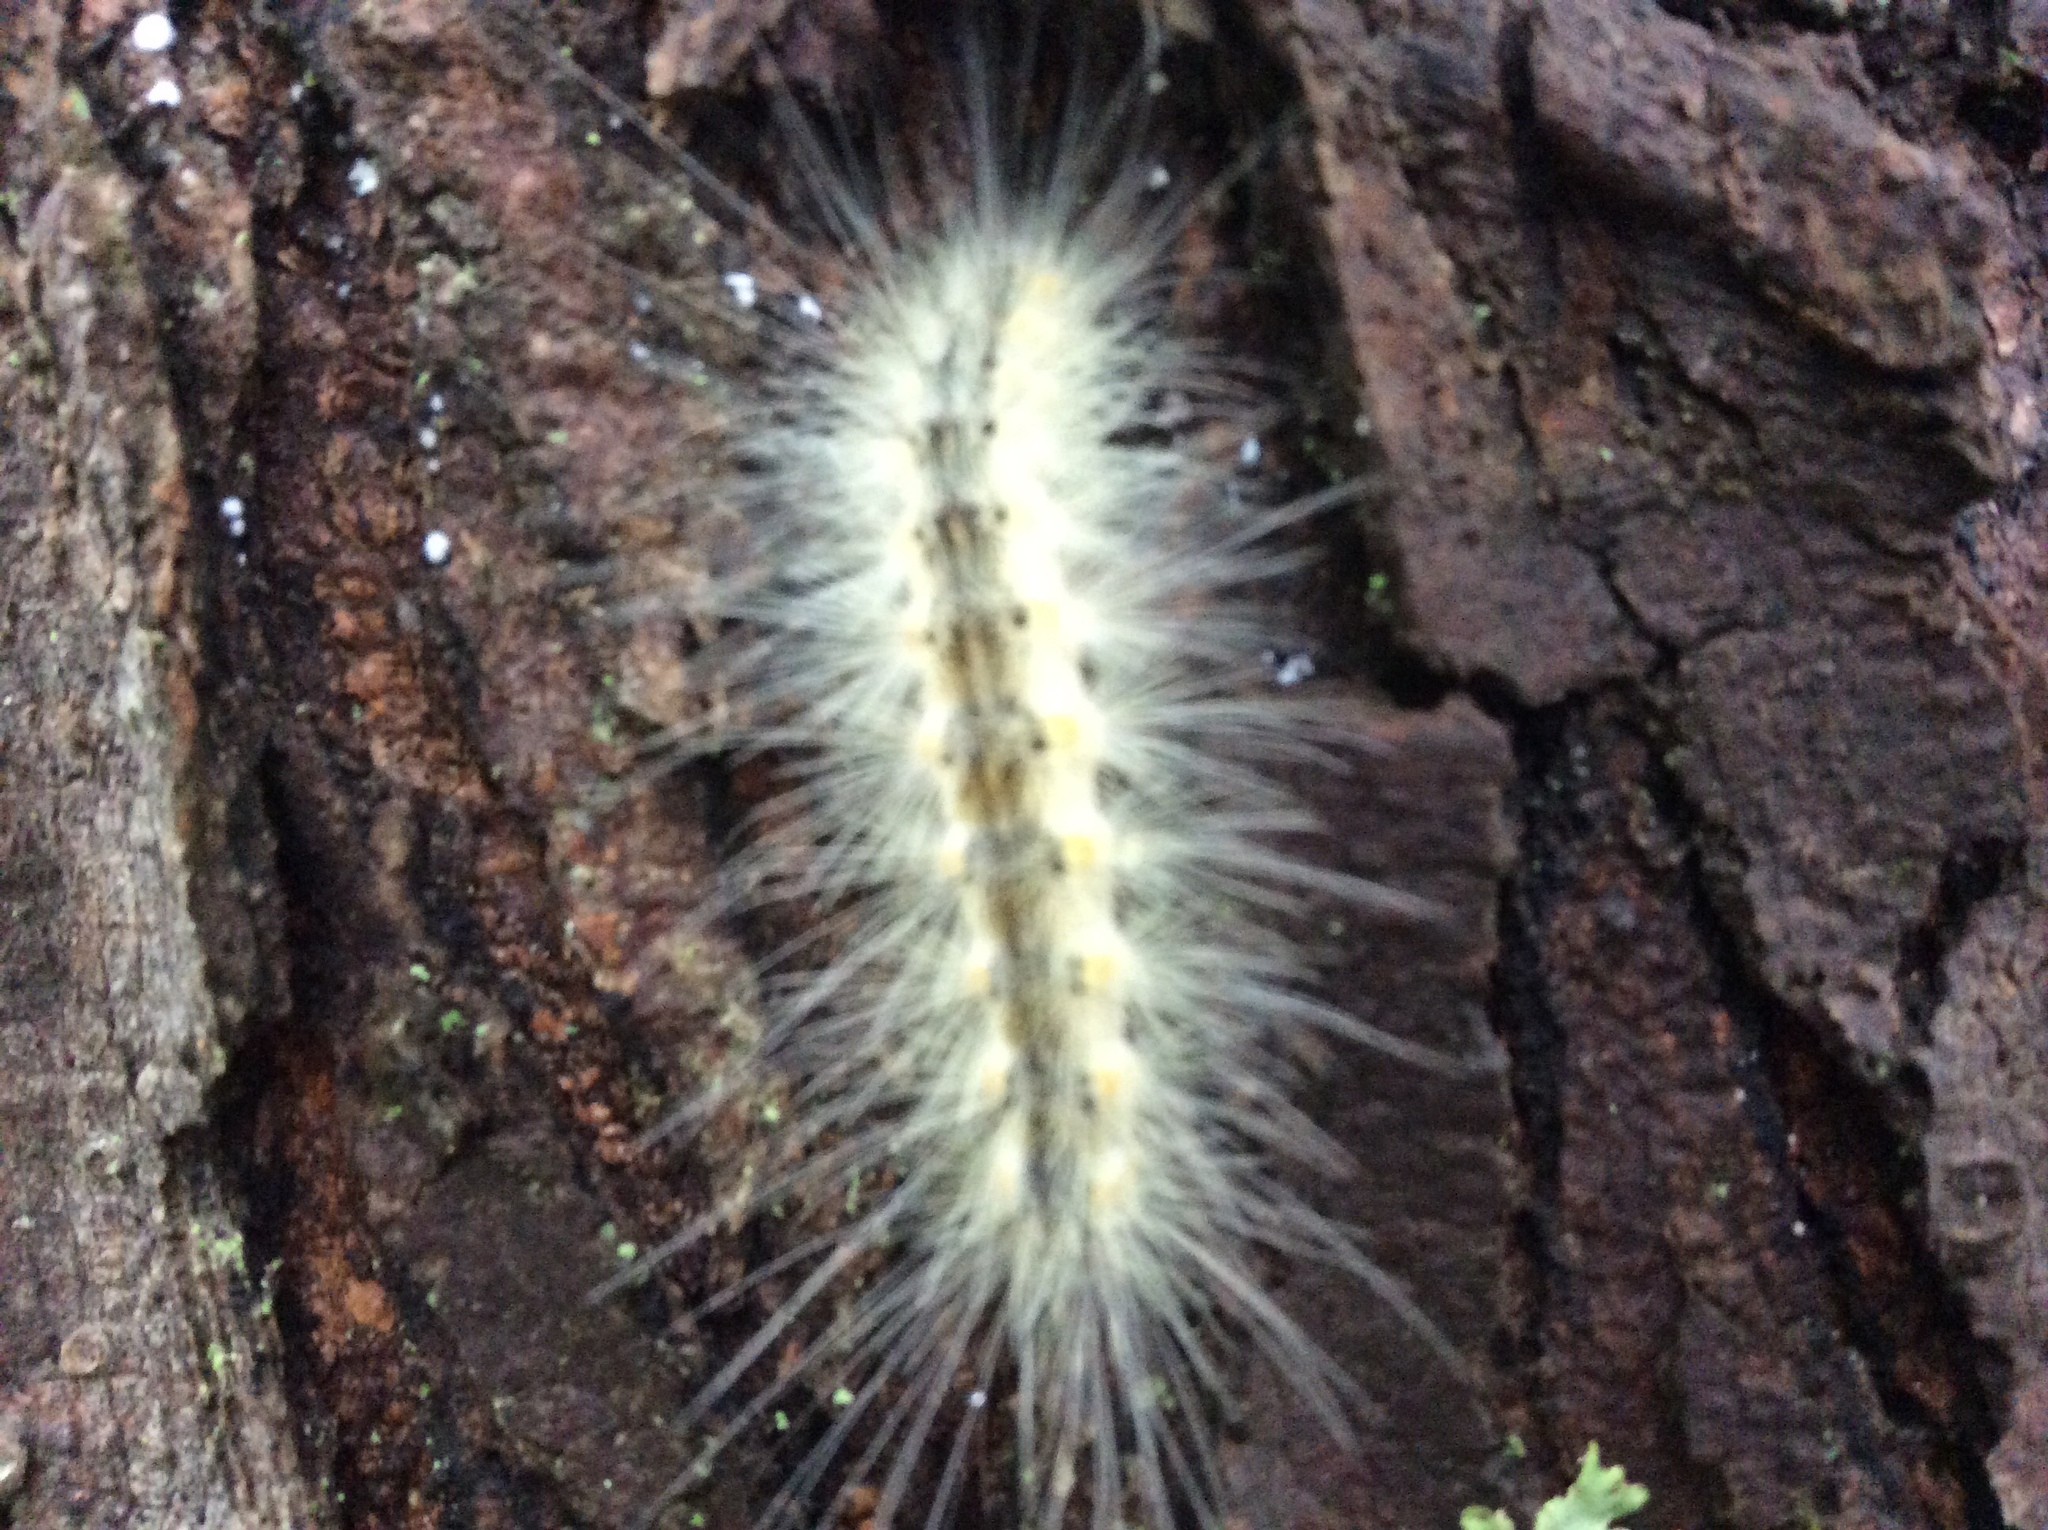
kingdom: Animalia
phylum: Arthropoda
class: Insecta
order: Lepidoptera
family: Erebidae
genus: Hyphantria
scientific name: Hyphantria cunea
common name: American white moth
